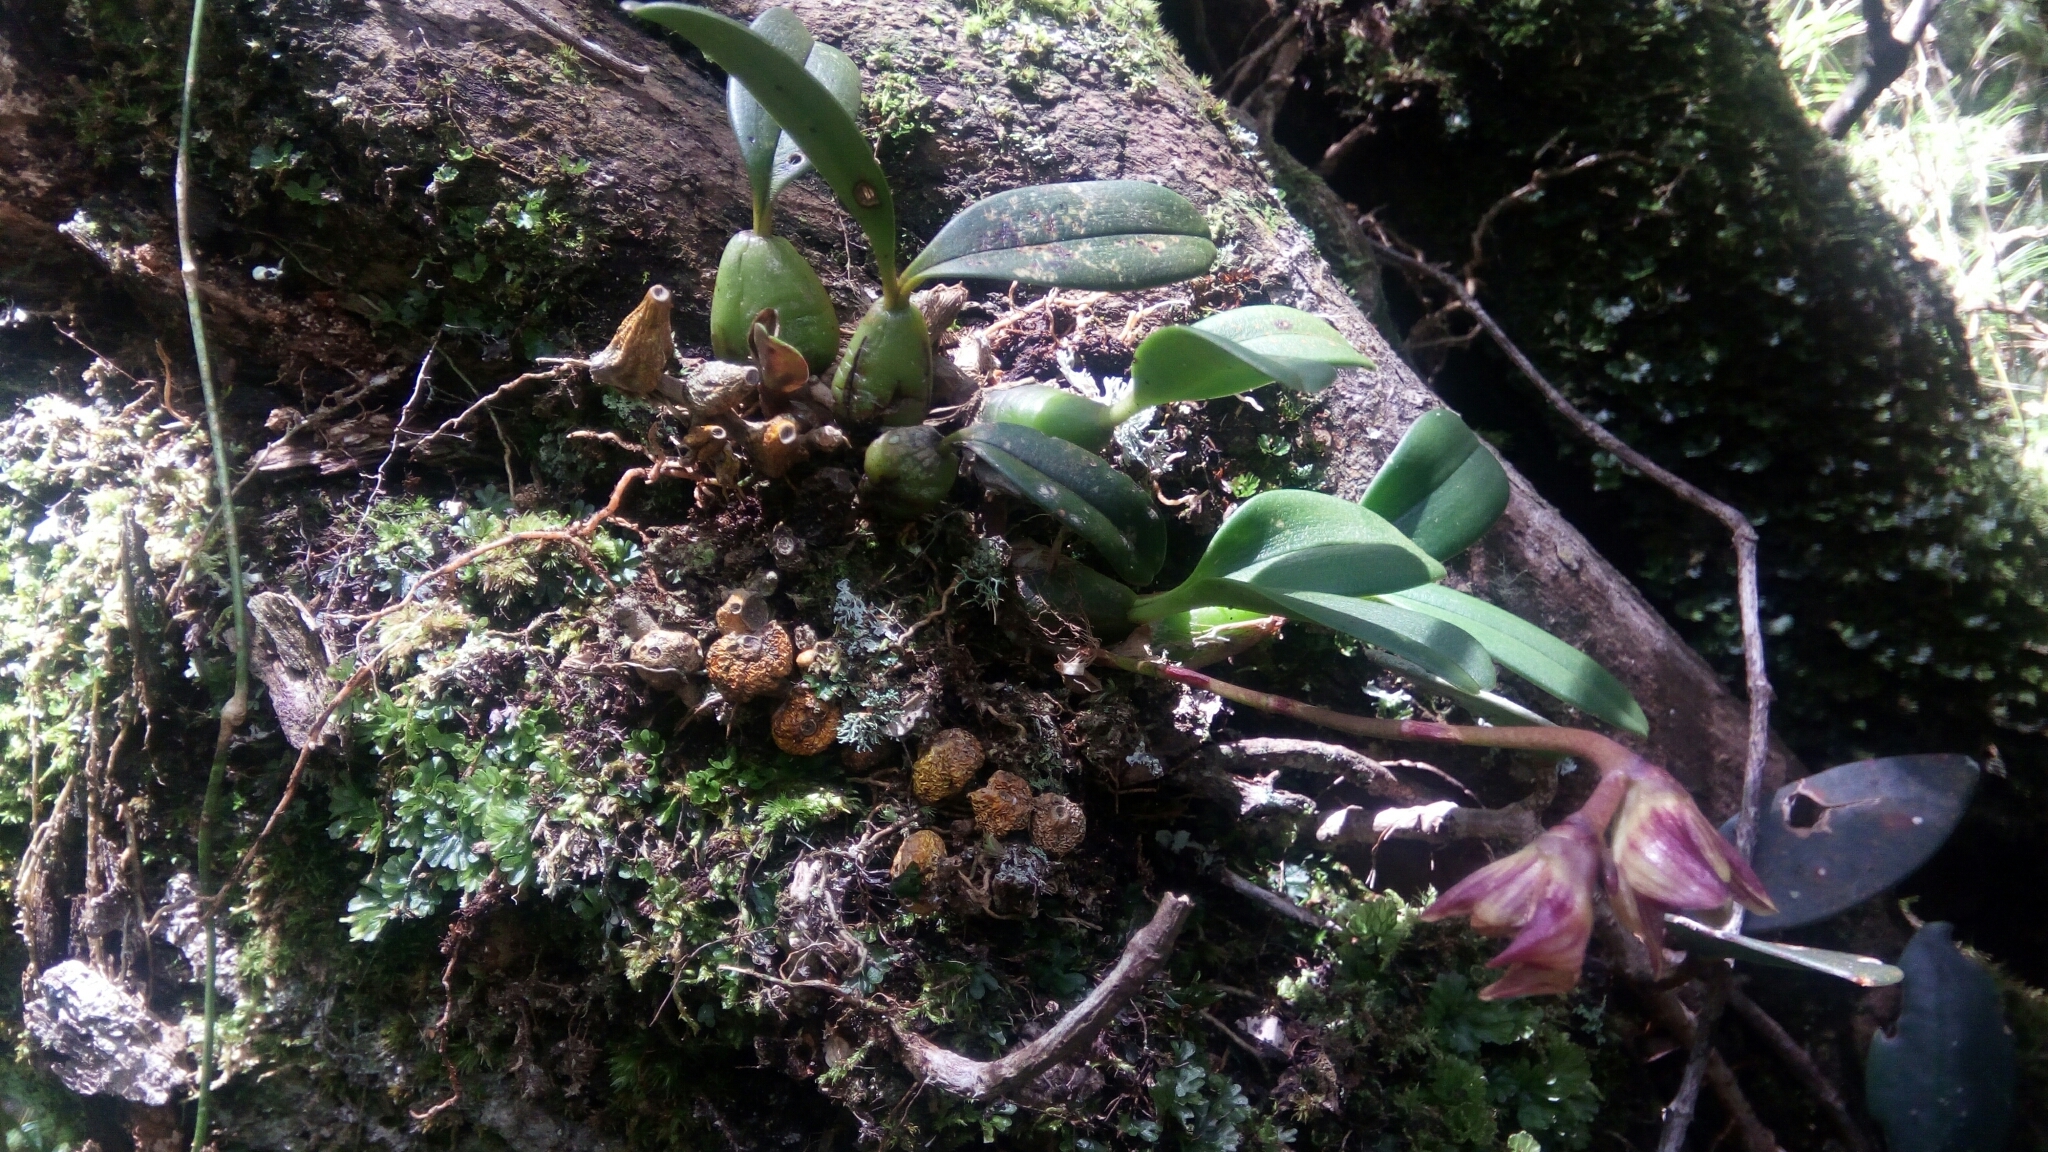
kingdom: Plantae
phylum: Tracheophyta
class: Liliopsida
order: Asparagales
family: Orchidaceae
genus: Bulbophyllum
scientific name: Bulbophyllum molossus
